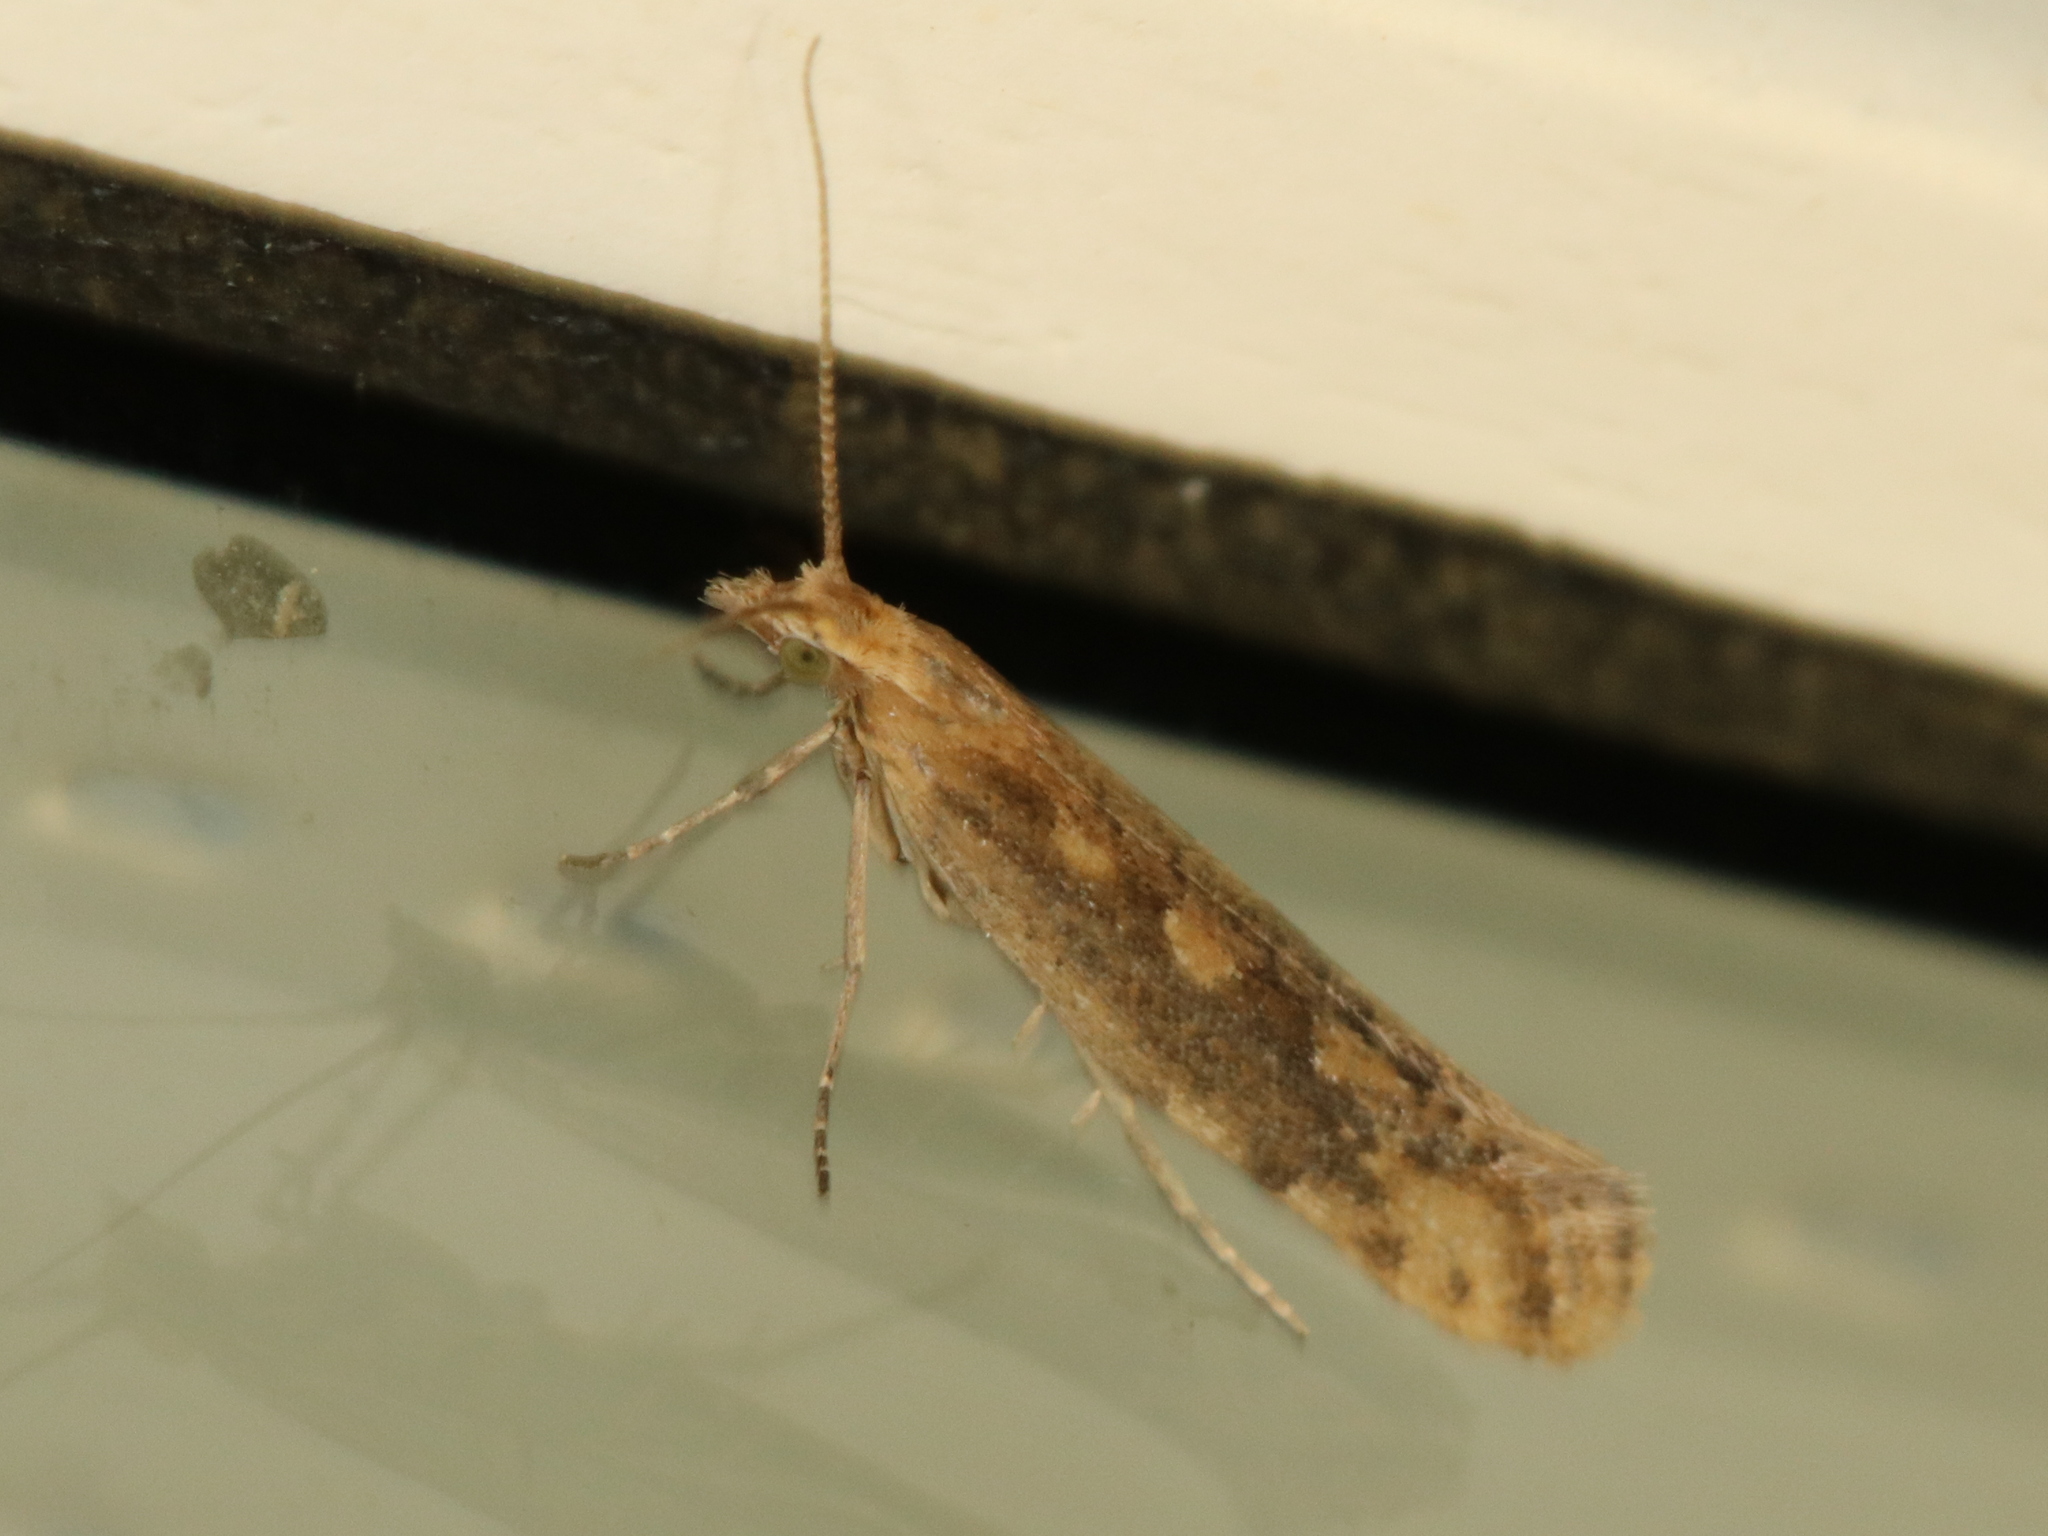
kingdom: Animalia
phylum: Arthropoda
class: Insecta
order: Lepidoptera
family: Plutellidae
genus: Plutella
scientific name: Plutella xylostella
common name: Diamond-back moth
